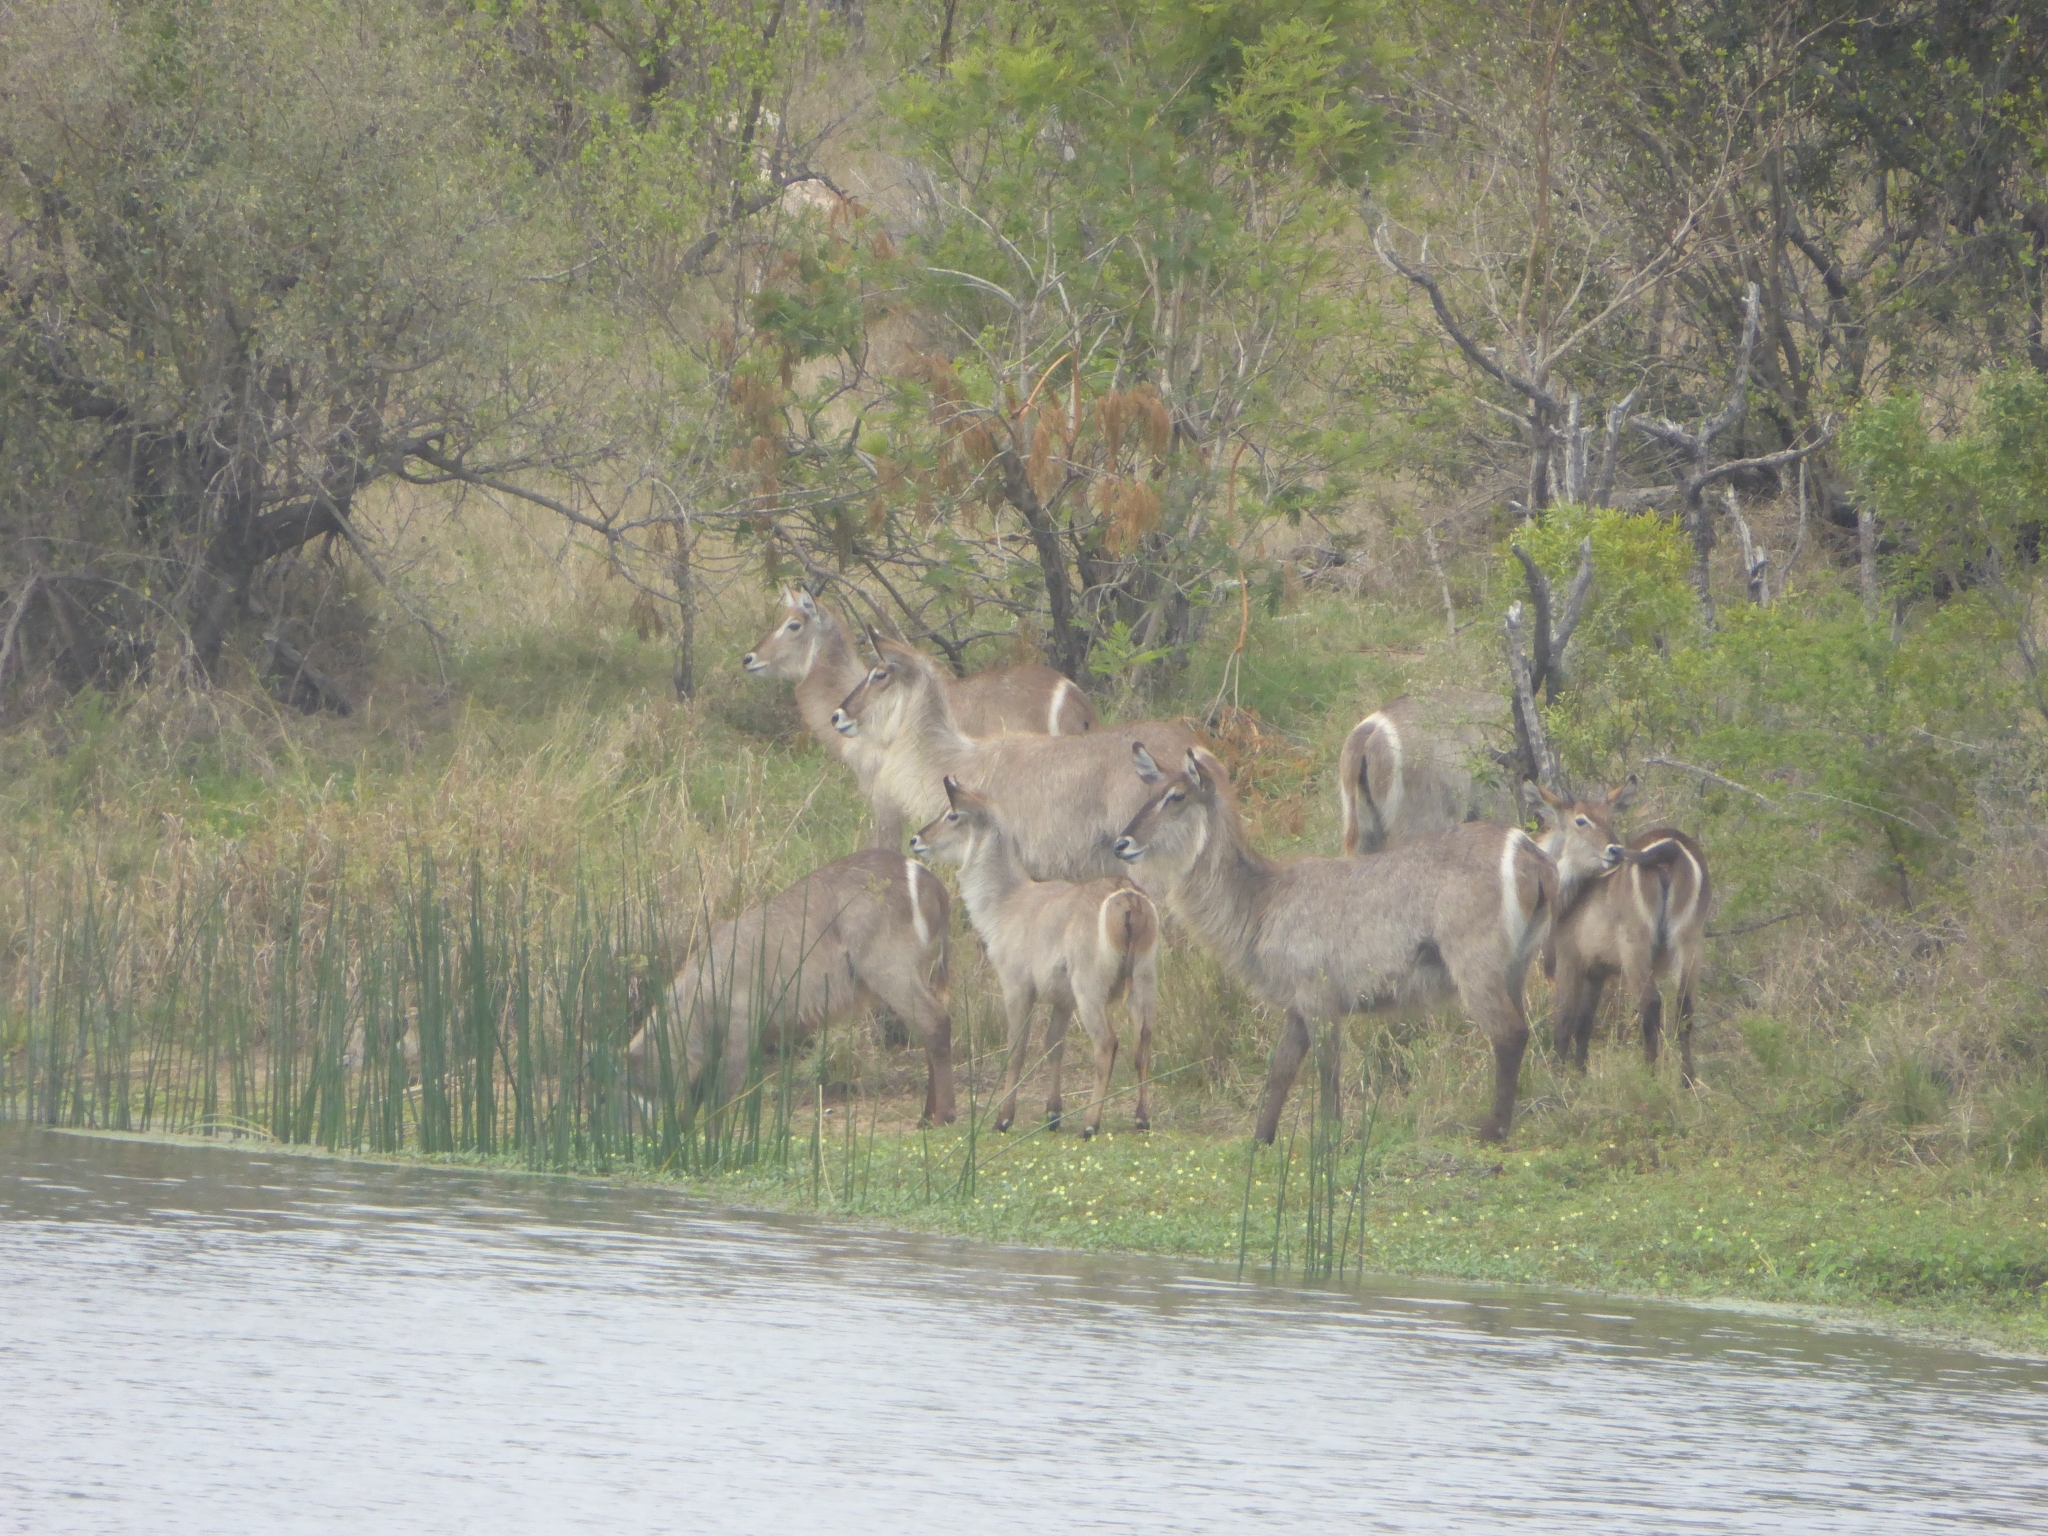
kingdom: Animalia
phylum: Chordata
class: Mammalia
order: Artiodactyla
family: Bovidae
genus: Kobus
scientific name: Kobus ellipsiprymnus
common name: Waterbuck
